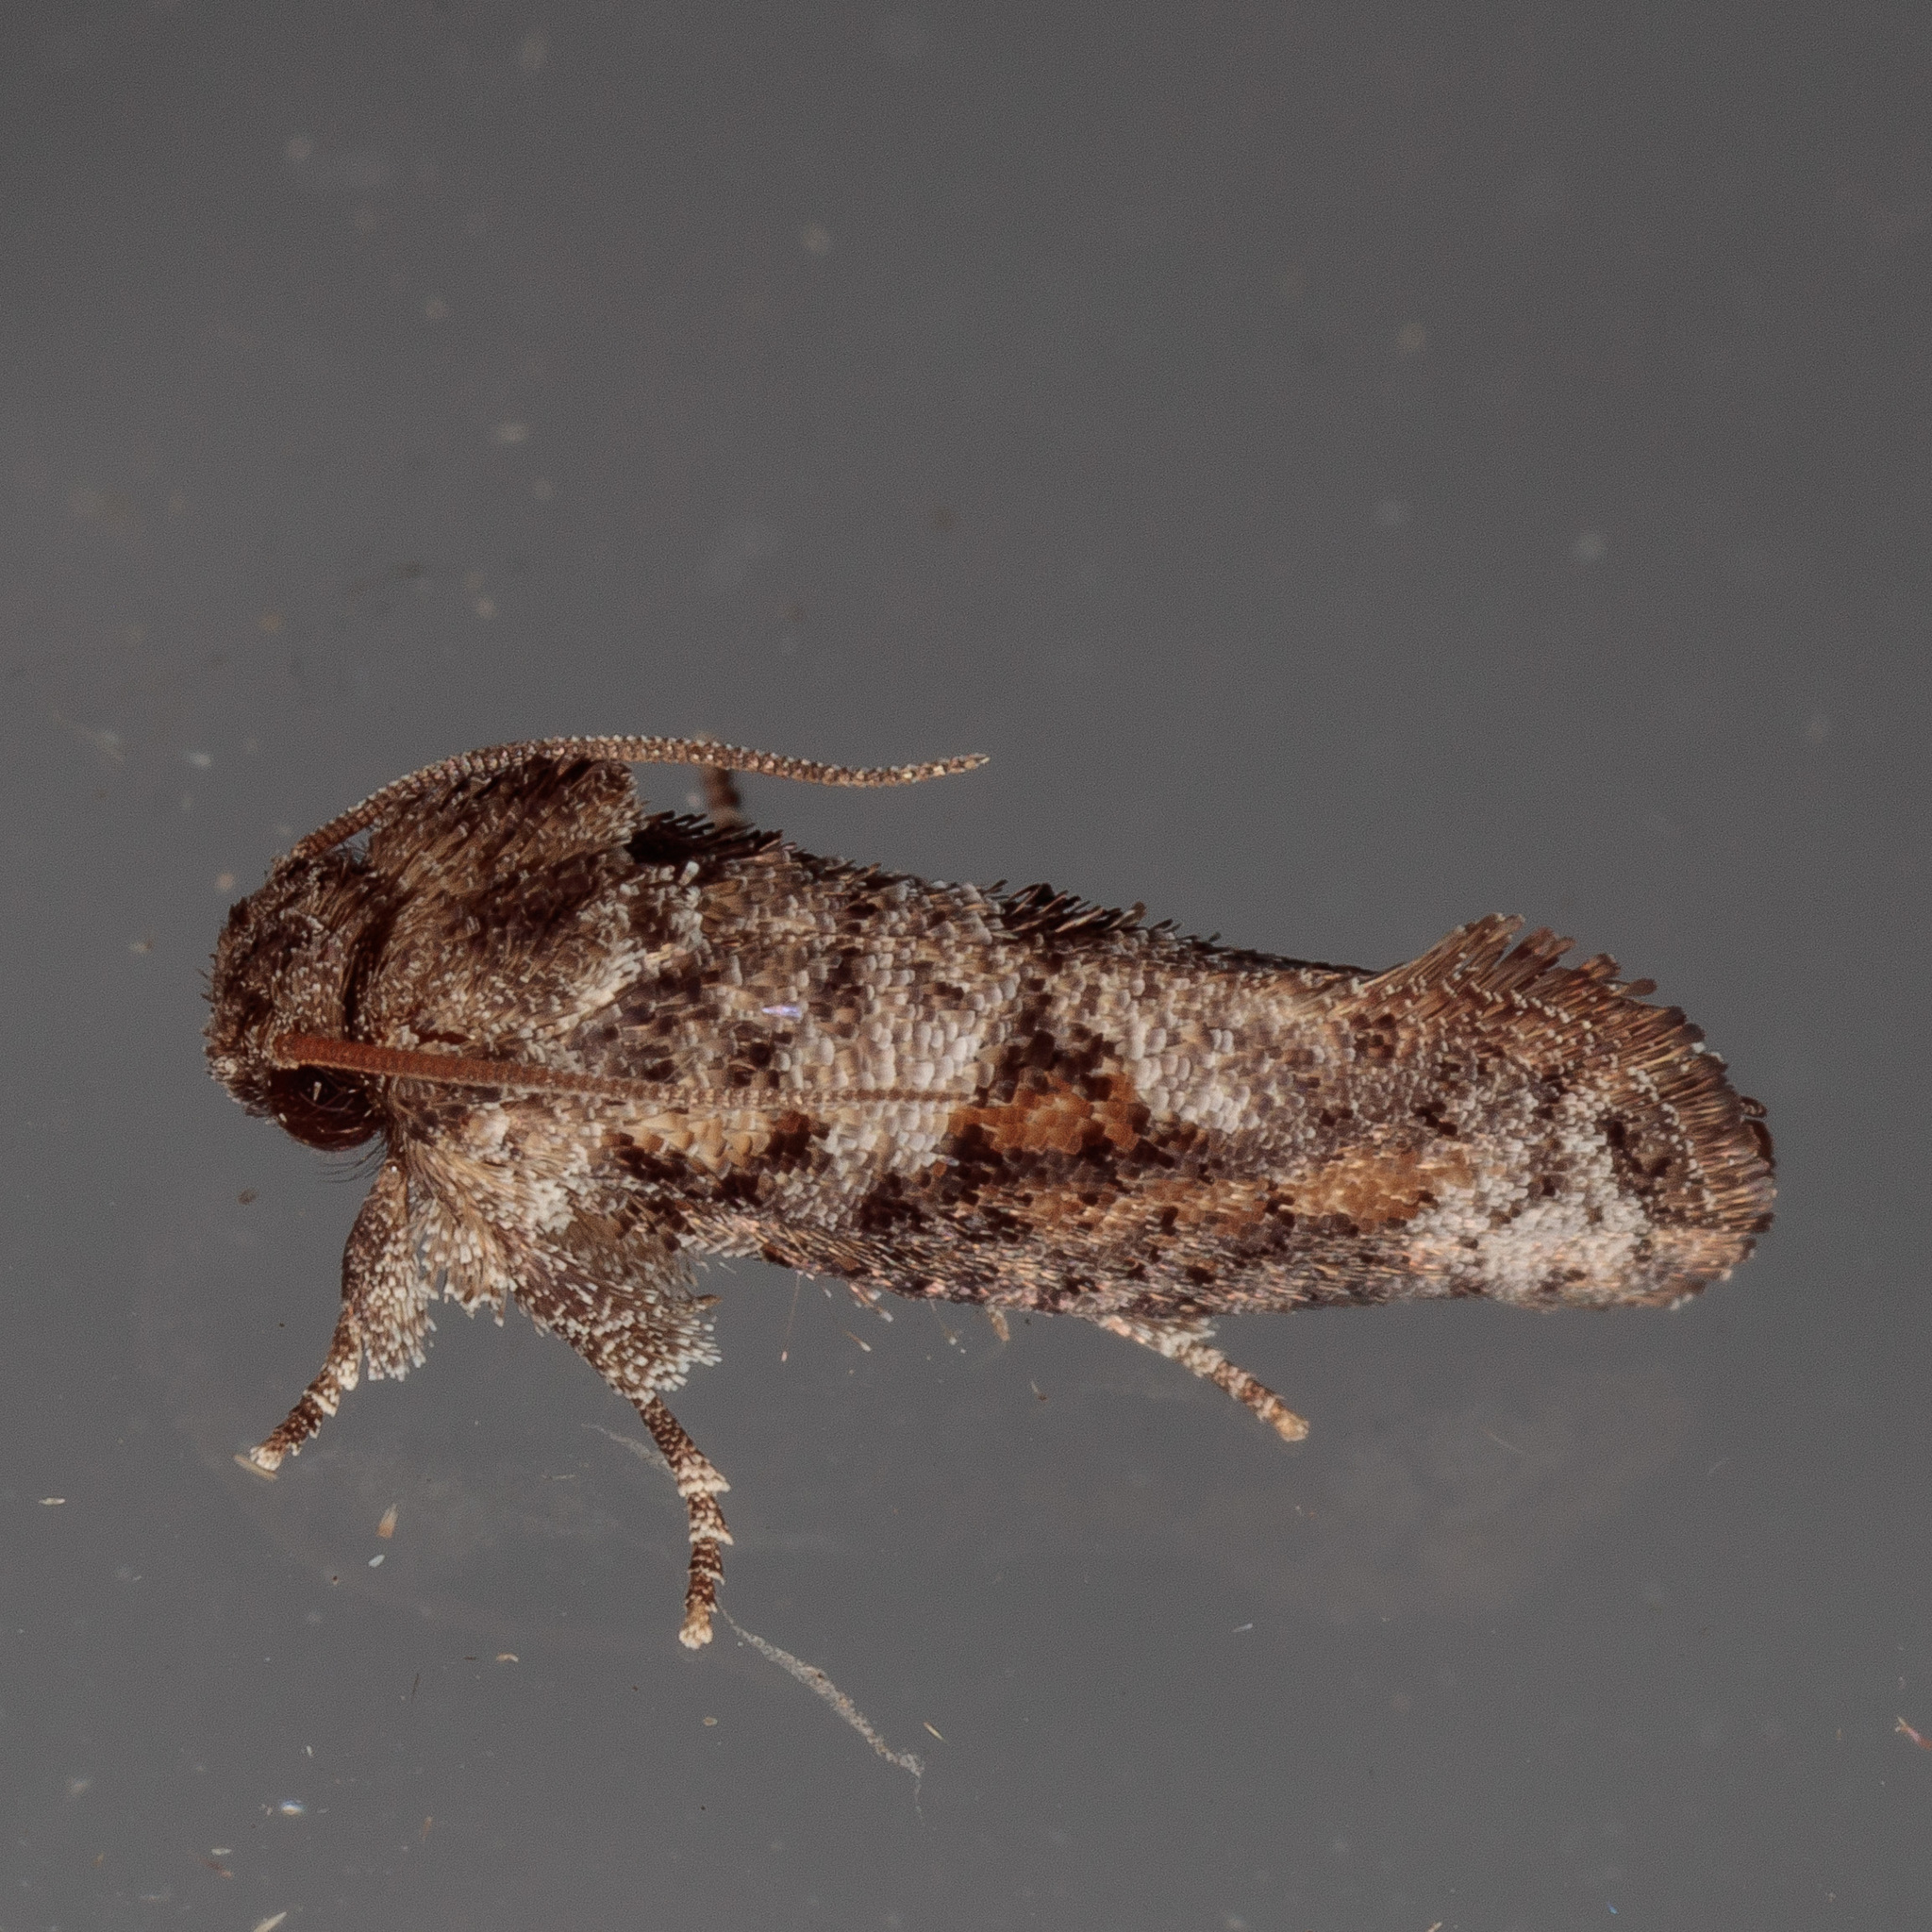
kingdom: Animalia
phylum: Arthropoda
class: Insecta
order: Lepidoptera
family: Tineidae
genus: Acrolophus
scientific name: Acrolophus piger
